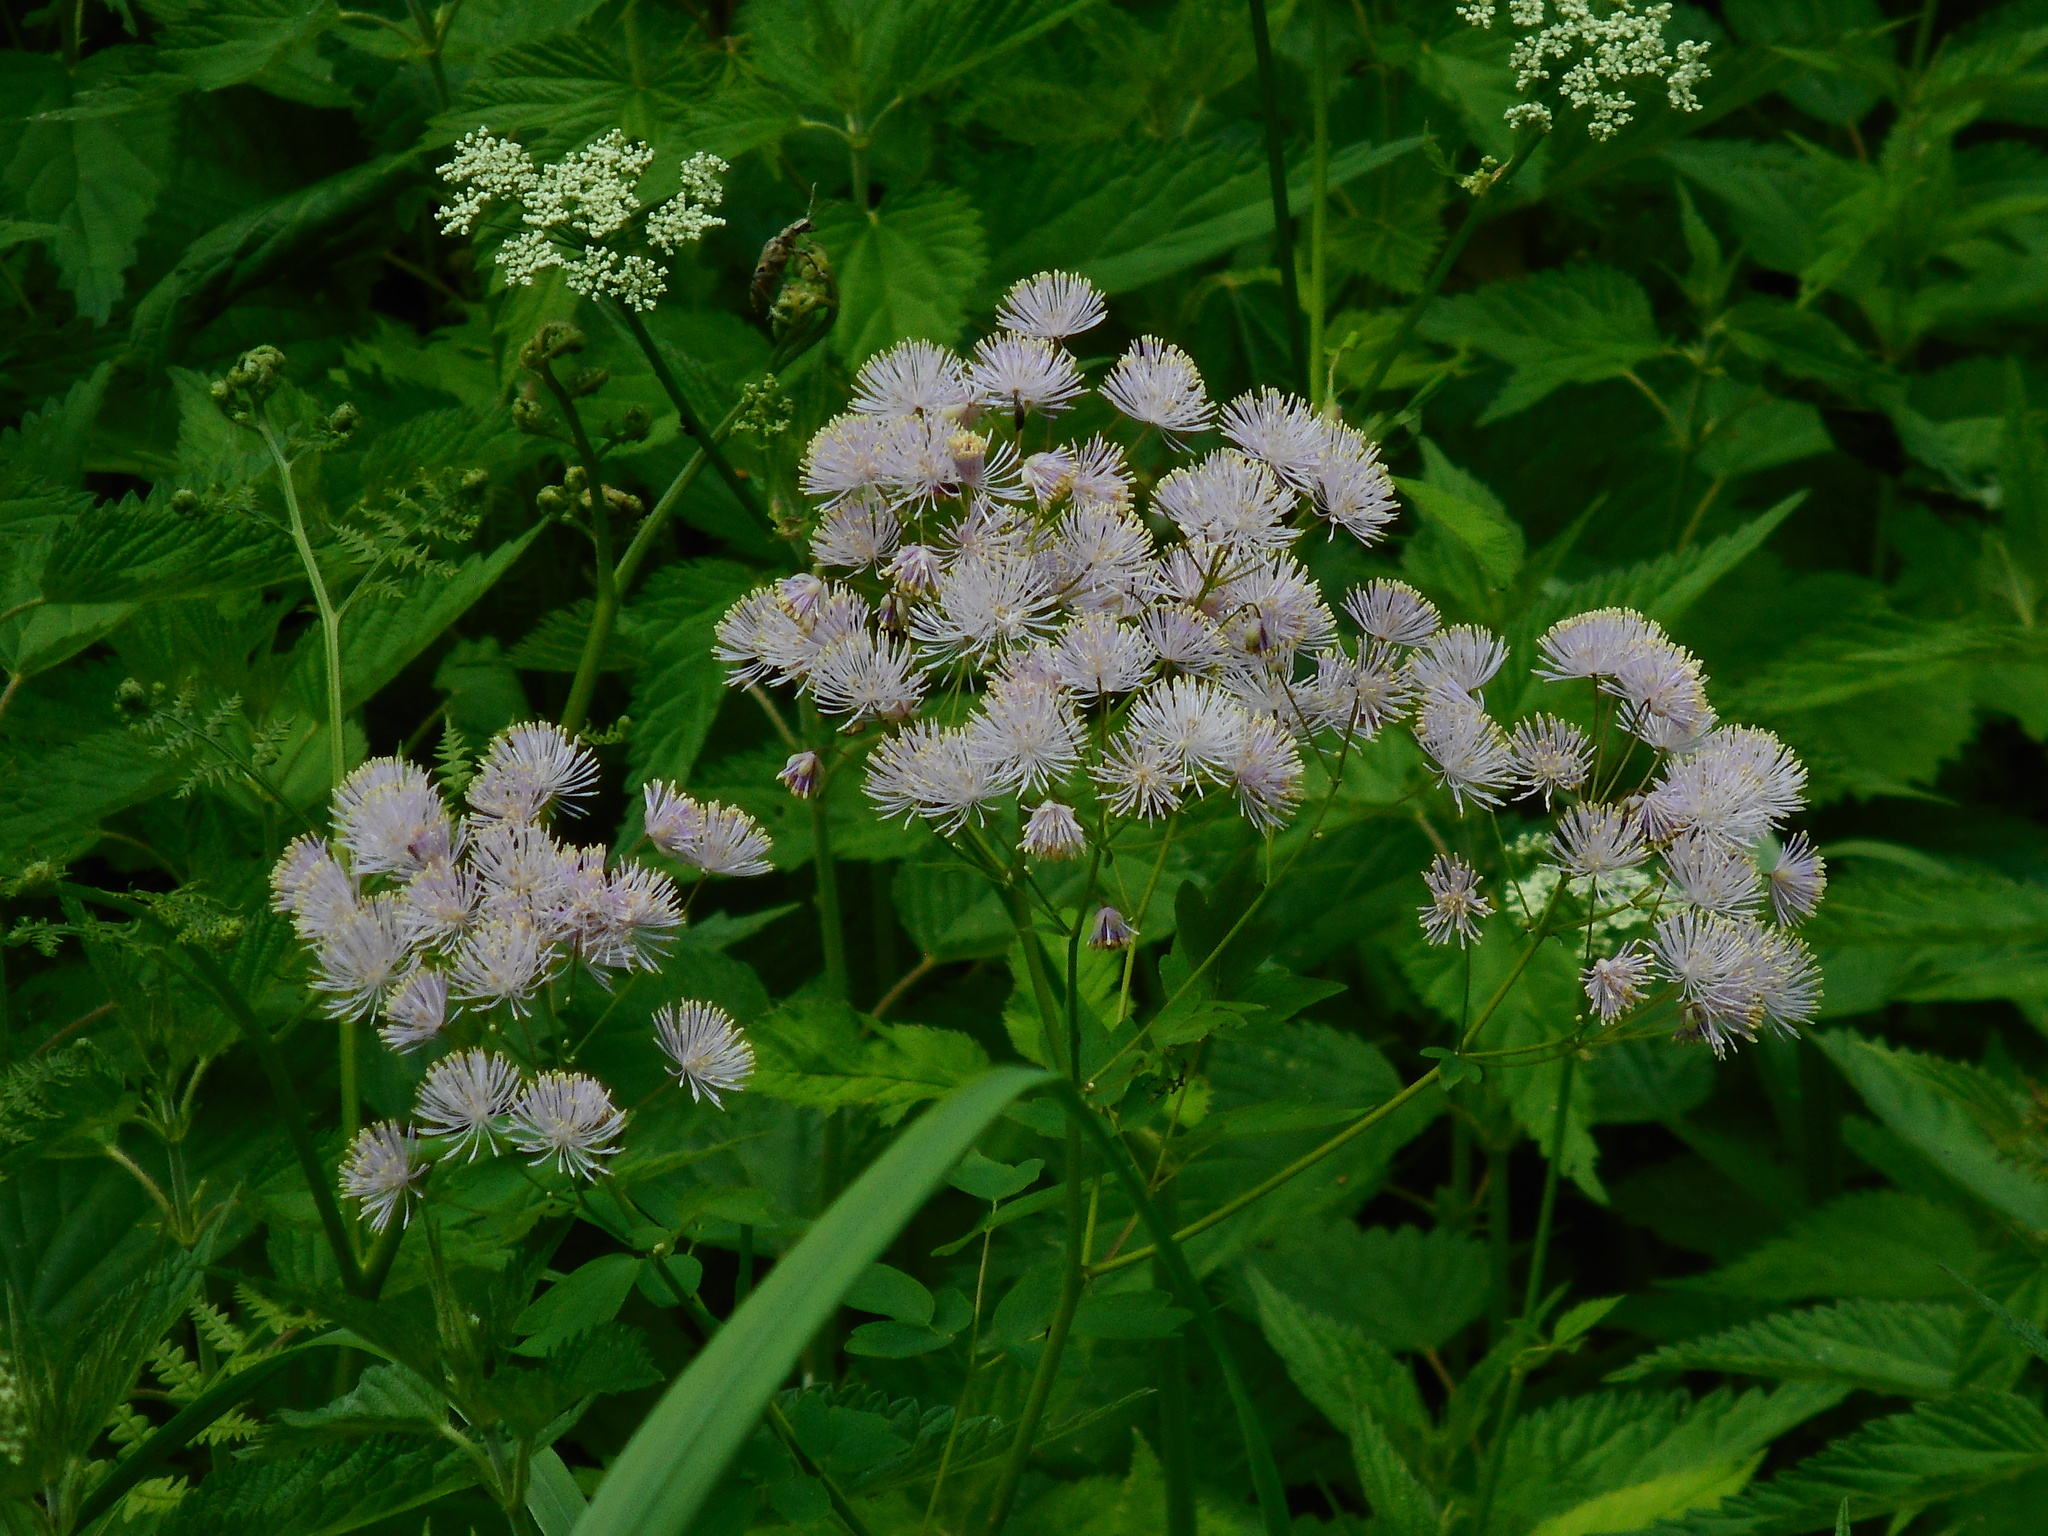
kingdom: Plantae
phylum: Tracheophyta
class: Magnoliopsida
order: Ranunculales
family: Ranunculaceae
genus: Thalictrum
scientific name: Thalictrum aquilegiifolium
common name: French meadow-rue
